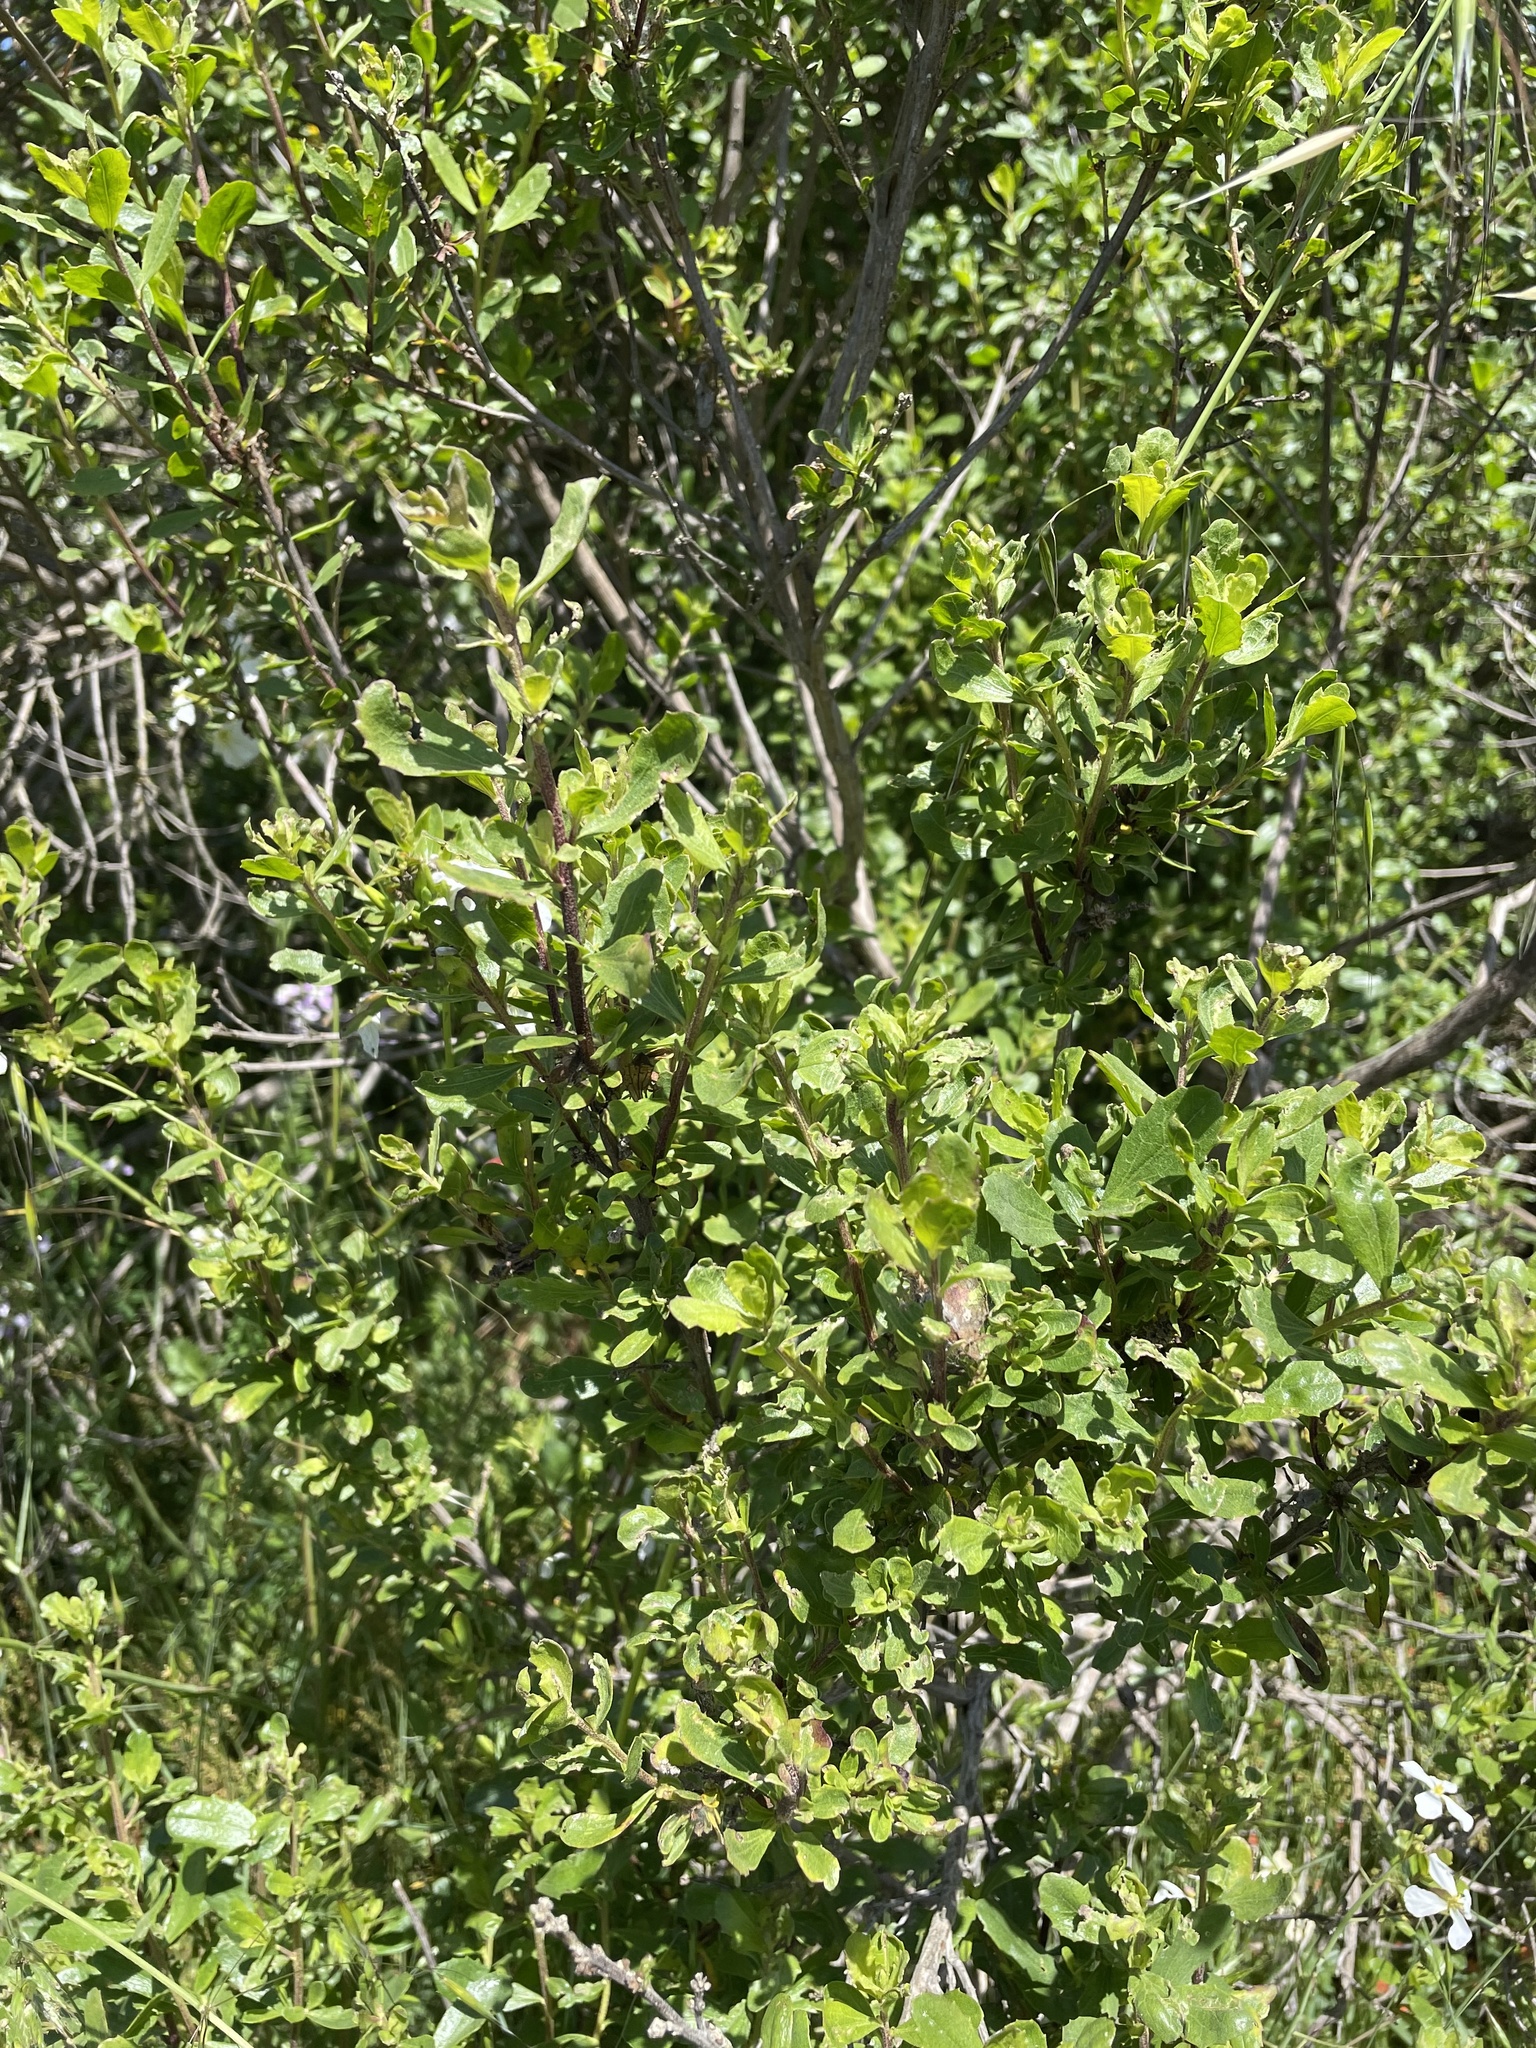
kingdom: Plantae
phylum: Tracheophyta
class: Magnoliopsida
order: Asterales
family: Asteraceae
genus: Baccharis
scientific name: Baccharis pilularis
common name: Coyotebrush
